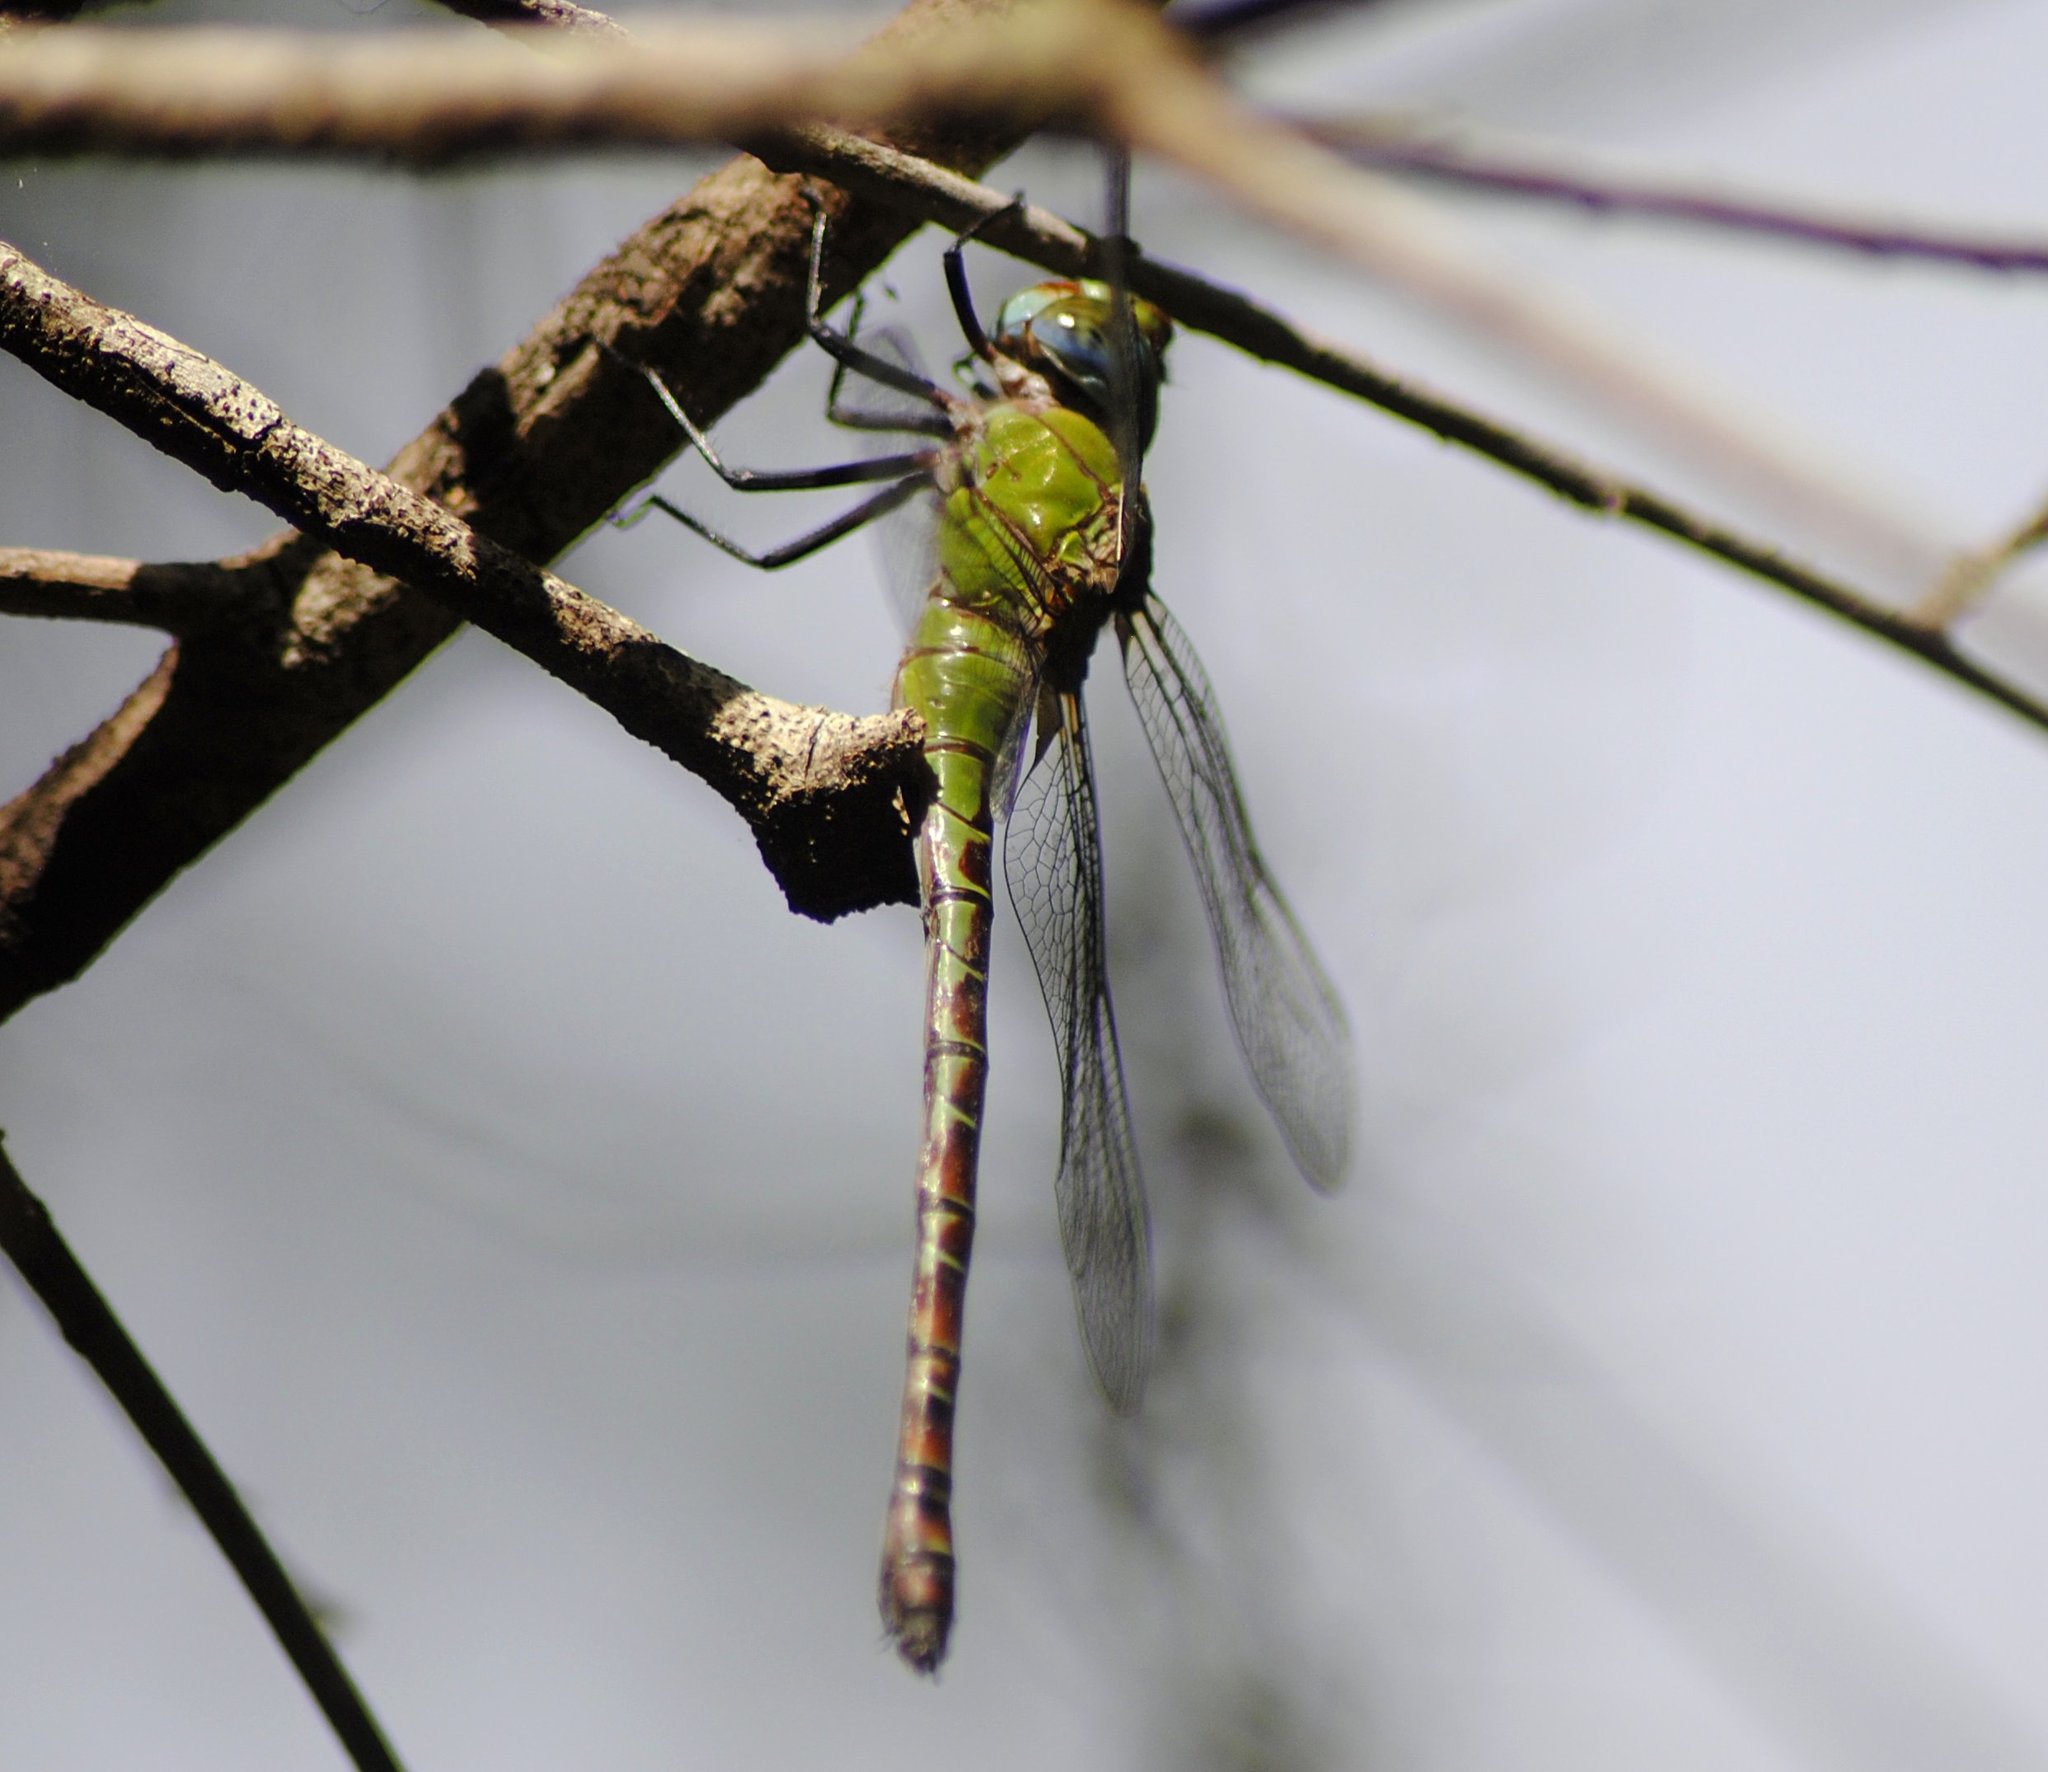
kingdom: Animalia
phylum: Arthropoda
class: Insecta
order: Odonata
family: Aeshnidae
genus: Coryphaeschna
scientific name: Coryphaeschna adnexa
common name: Blue-faced darner
